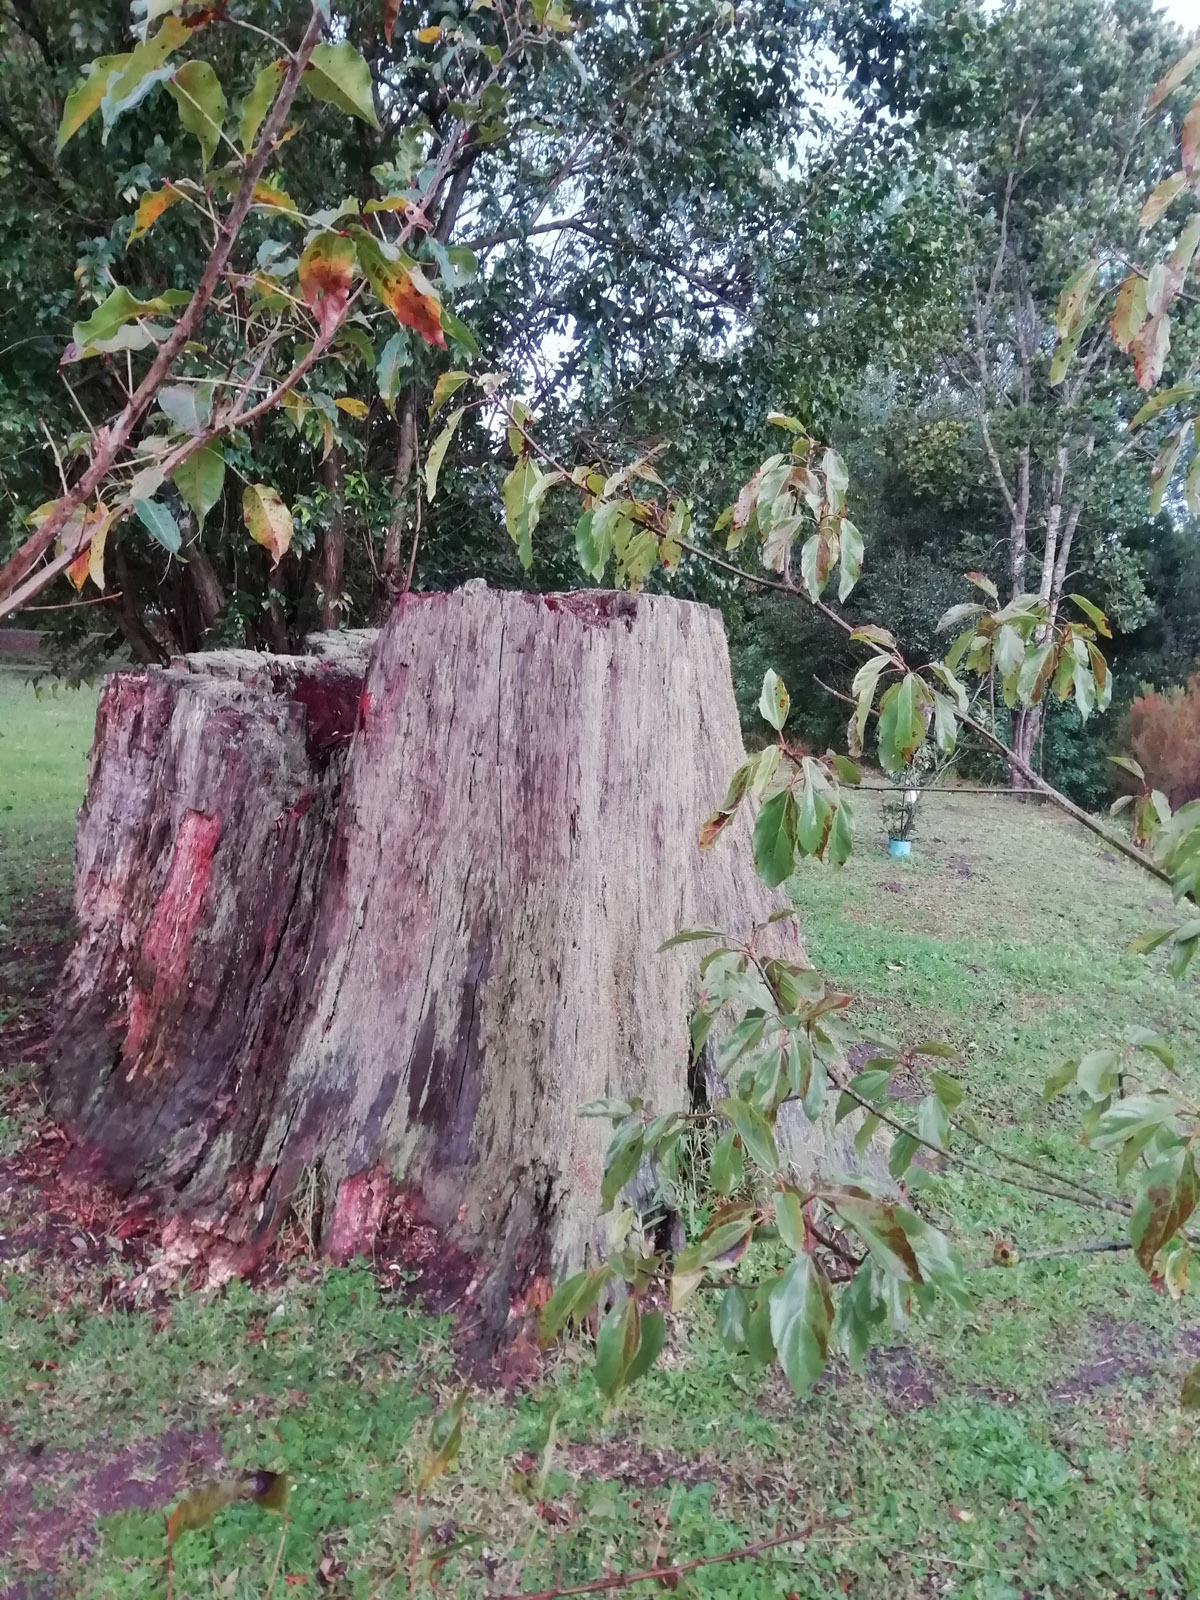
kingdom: Fungi
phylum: Ascomycota
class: Lecanoromycetes
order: Lecanorales
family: Cladoniaceae
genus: Cladonia
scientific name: Cladonia floerkeana
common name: Gritty british soldiers lichen
